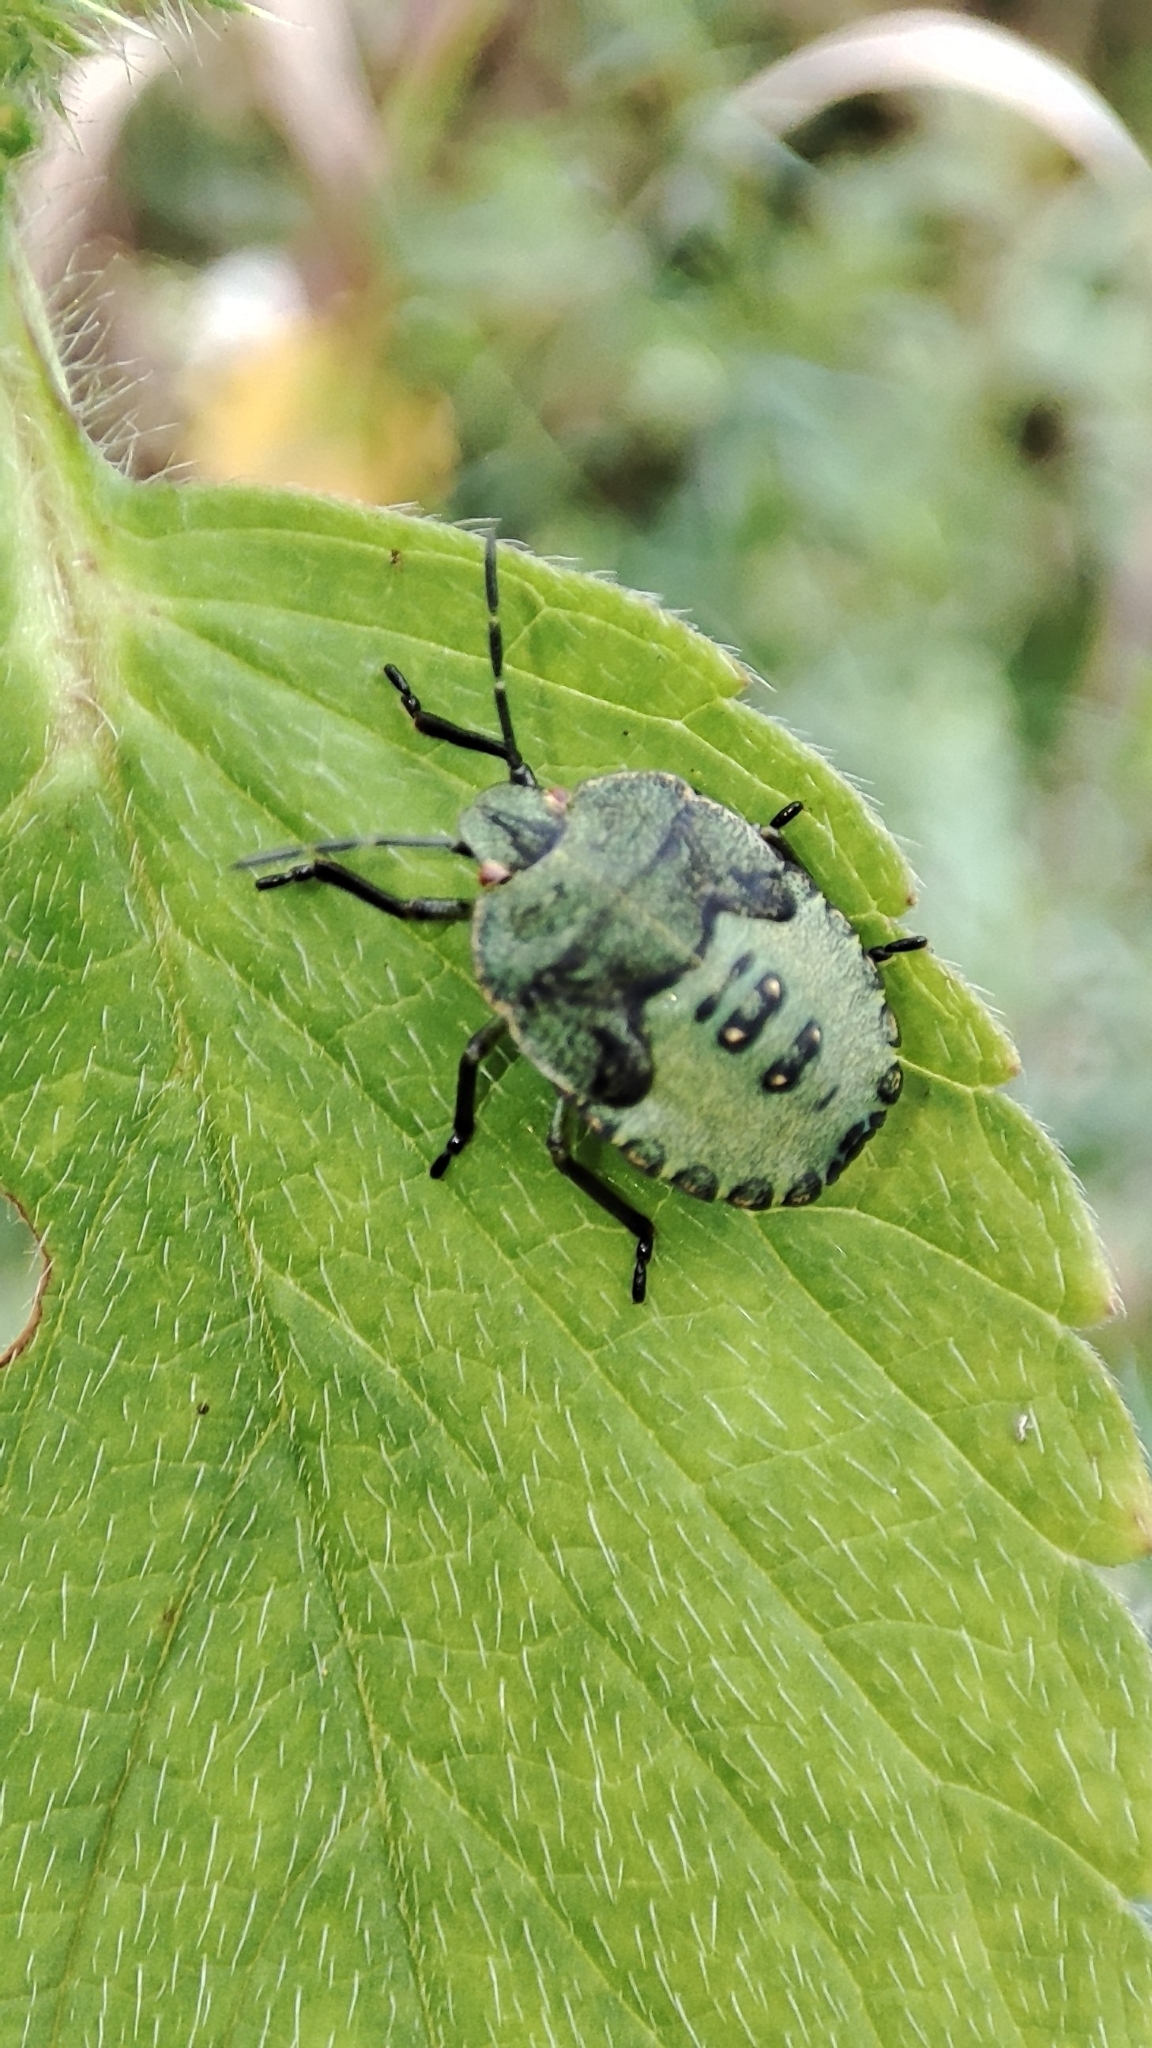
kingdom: Animalia
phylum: Arthropoda
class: Insecta
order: Hemiptera
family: Pentatomidae
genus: Palomena
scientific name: Palomena prasina
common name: Green shieldbug
